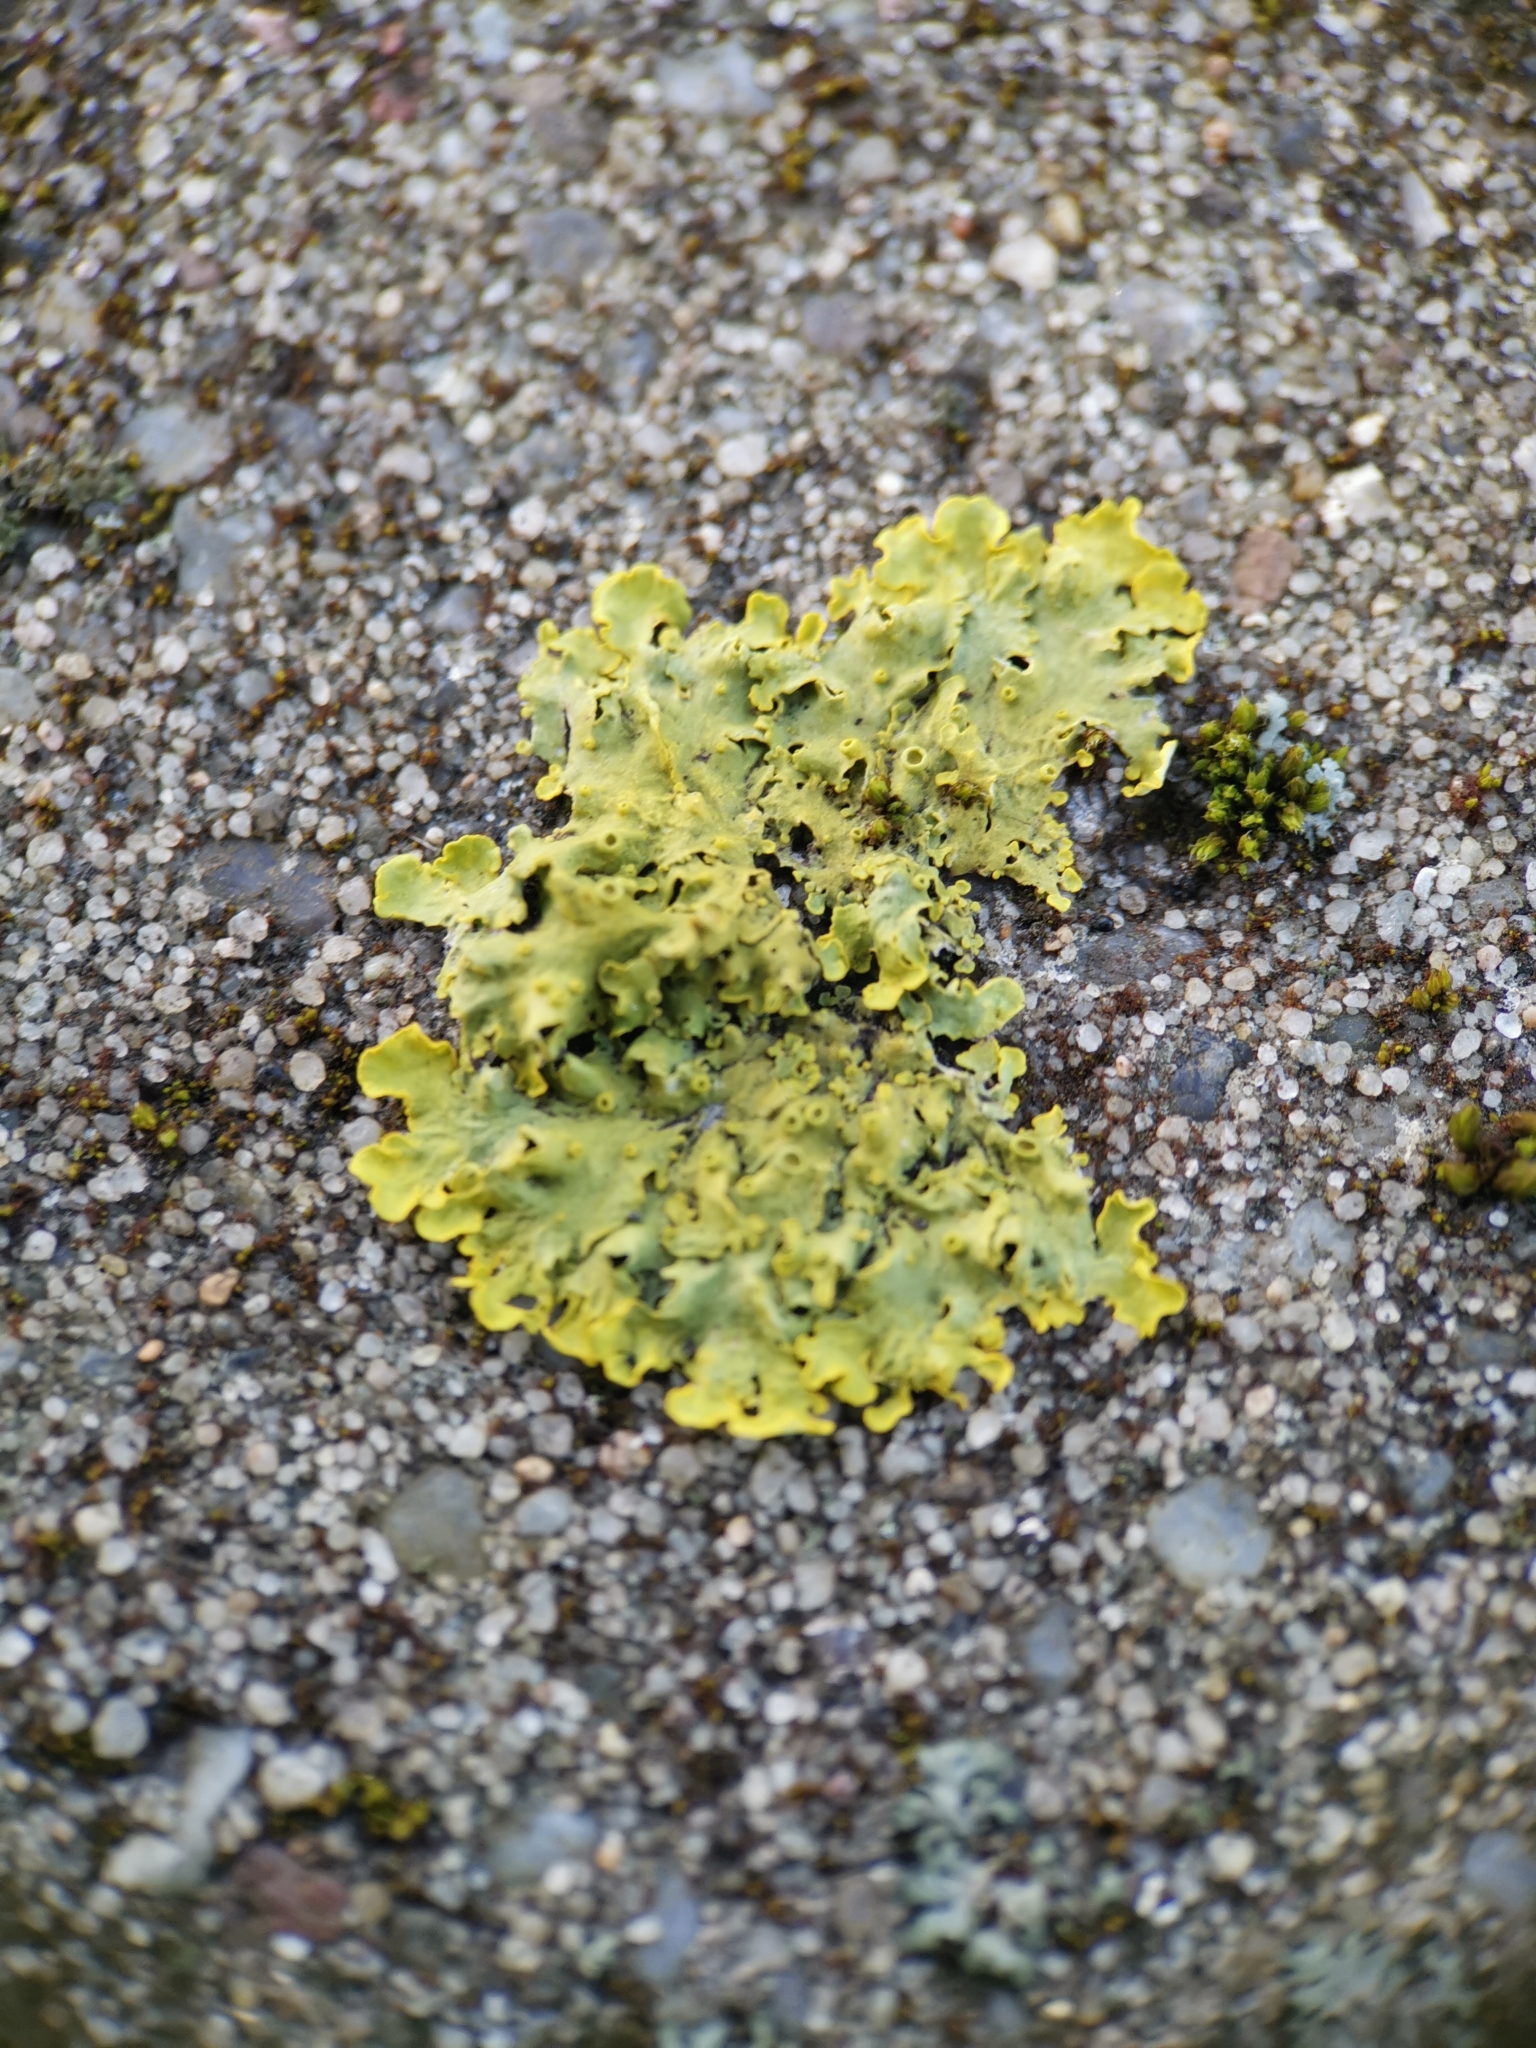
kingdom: Fungi
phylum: Ascomycota
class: Lecanoromycetes
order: Teloschistales
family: Teloschistaceae
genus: Xanthoria
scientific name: Xanthoria parietina
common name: Common orange lichen
